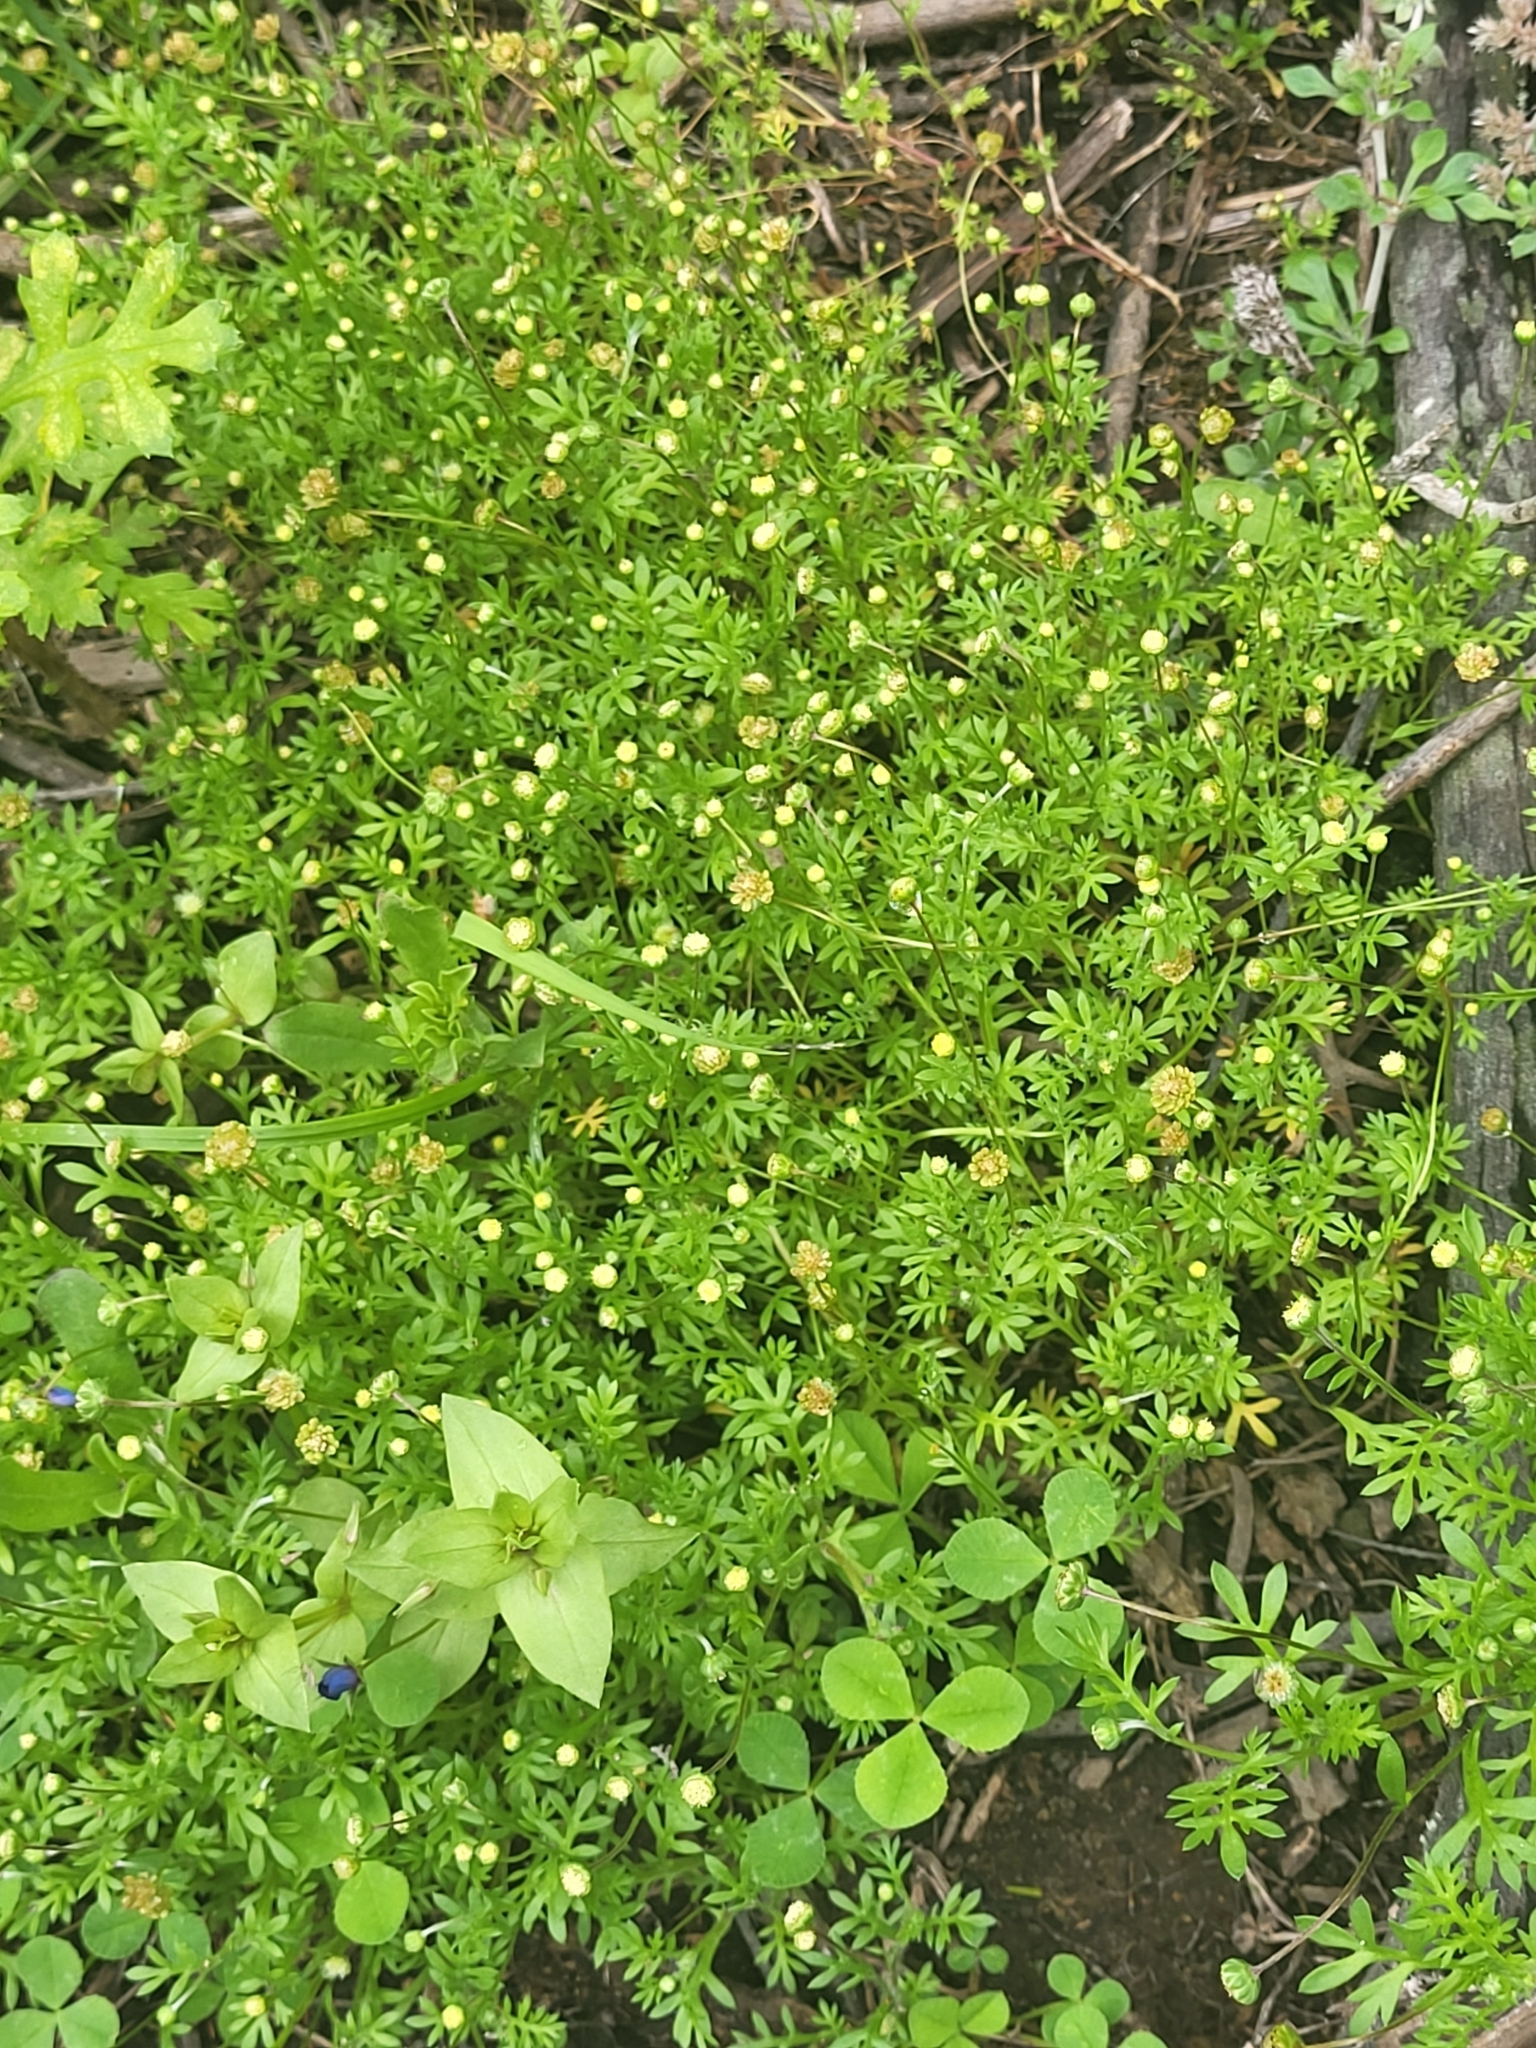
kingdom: Plantae
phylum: Tracheophyta
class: Magnoliopsida
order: Asterales
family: Asteraceae
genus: Cotula
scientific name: Cotula australis
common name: Australian waterbuttons
